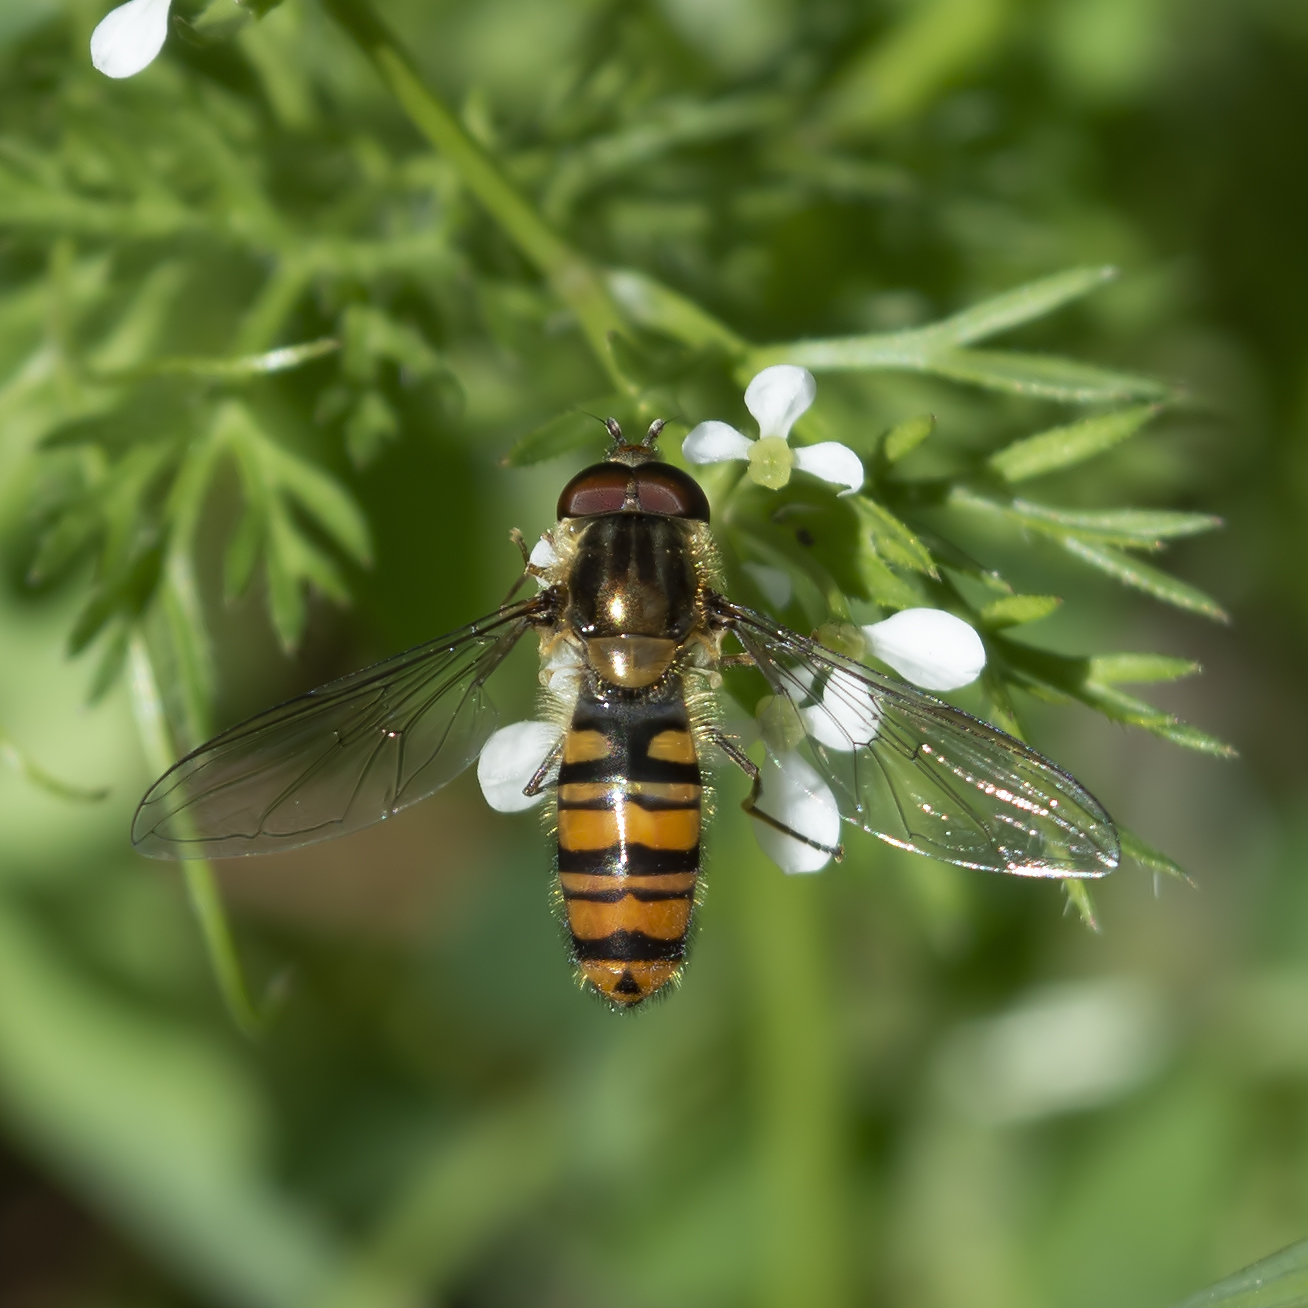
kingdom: Animalia
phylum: Arthropoda
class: Insecta
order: Diptera
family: Syrphidae
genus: Episyrphus
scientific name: Episyrphus balteatus
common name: Marmalade hoverfly
